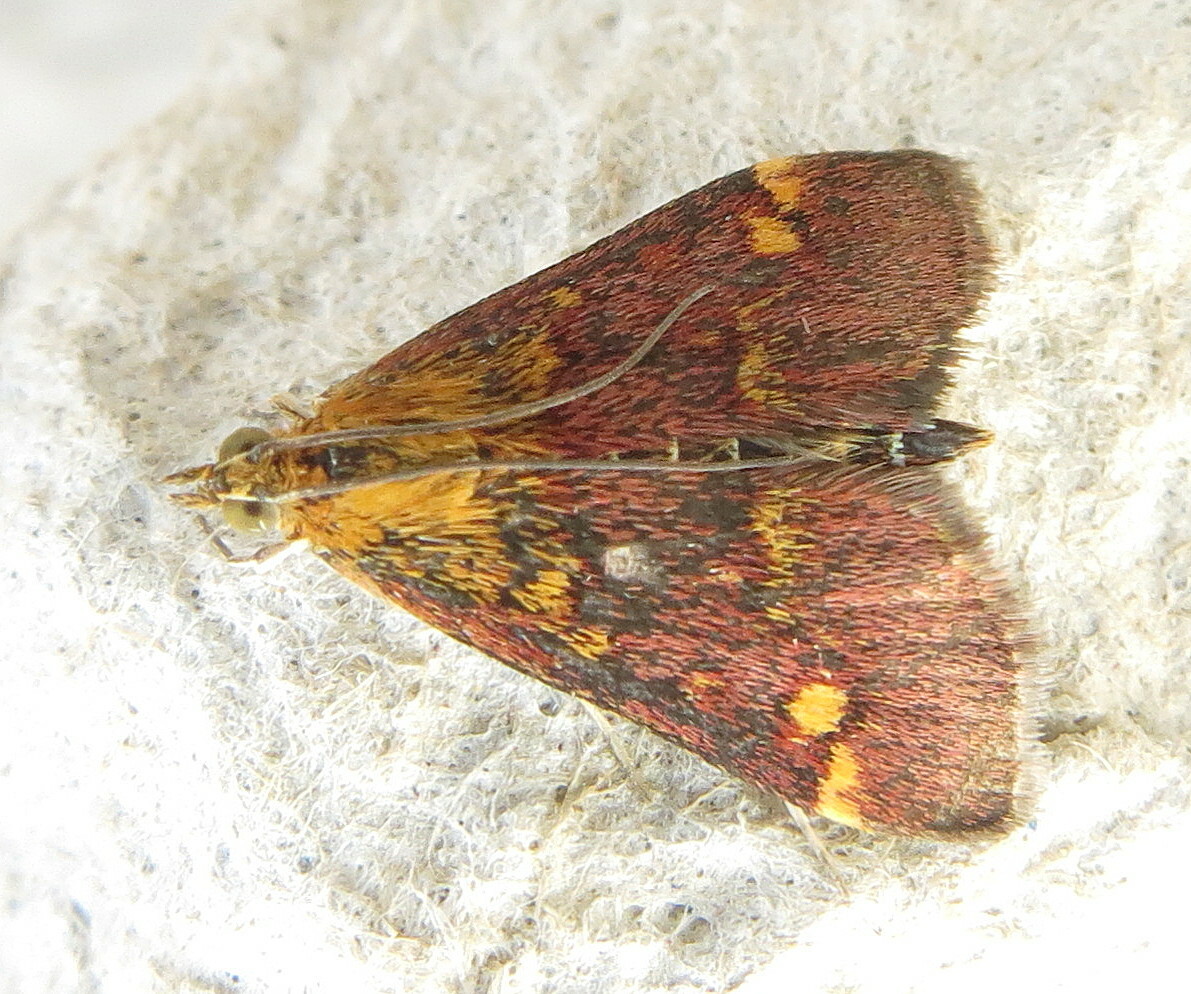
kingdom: Animalia
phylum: Arthropoda
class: Insecta
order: Lepidoptera
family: Crambidae
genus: Pyrausta
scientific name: Pyrausta aurata
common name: Small purple & gold
